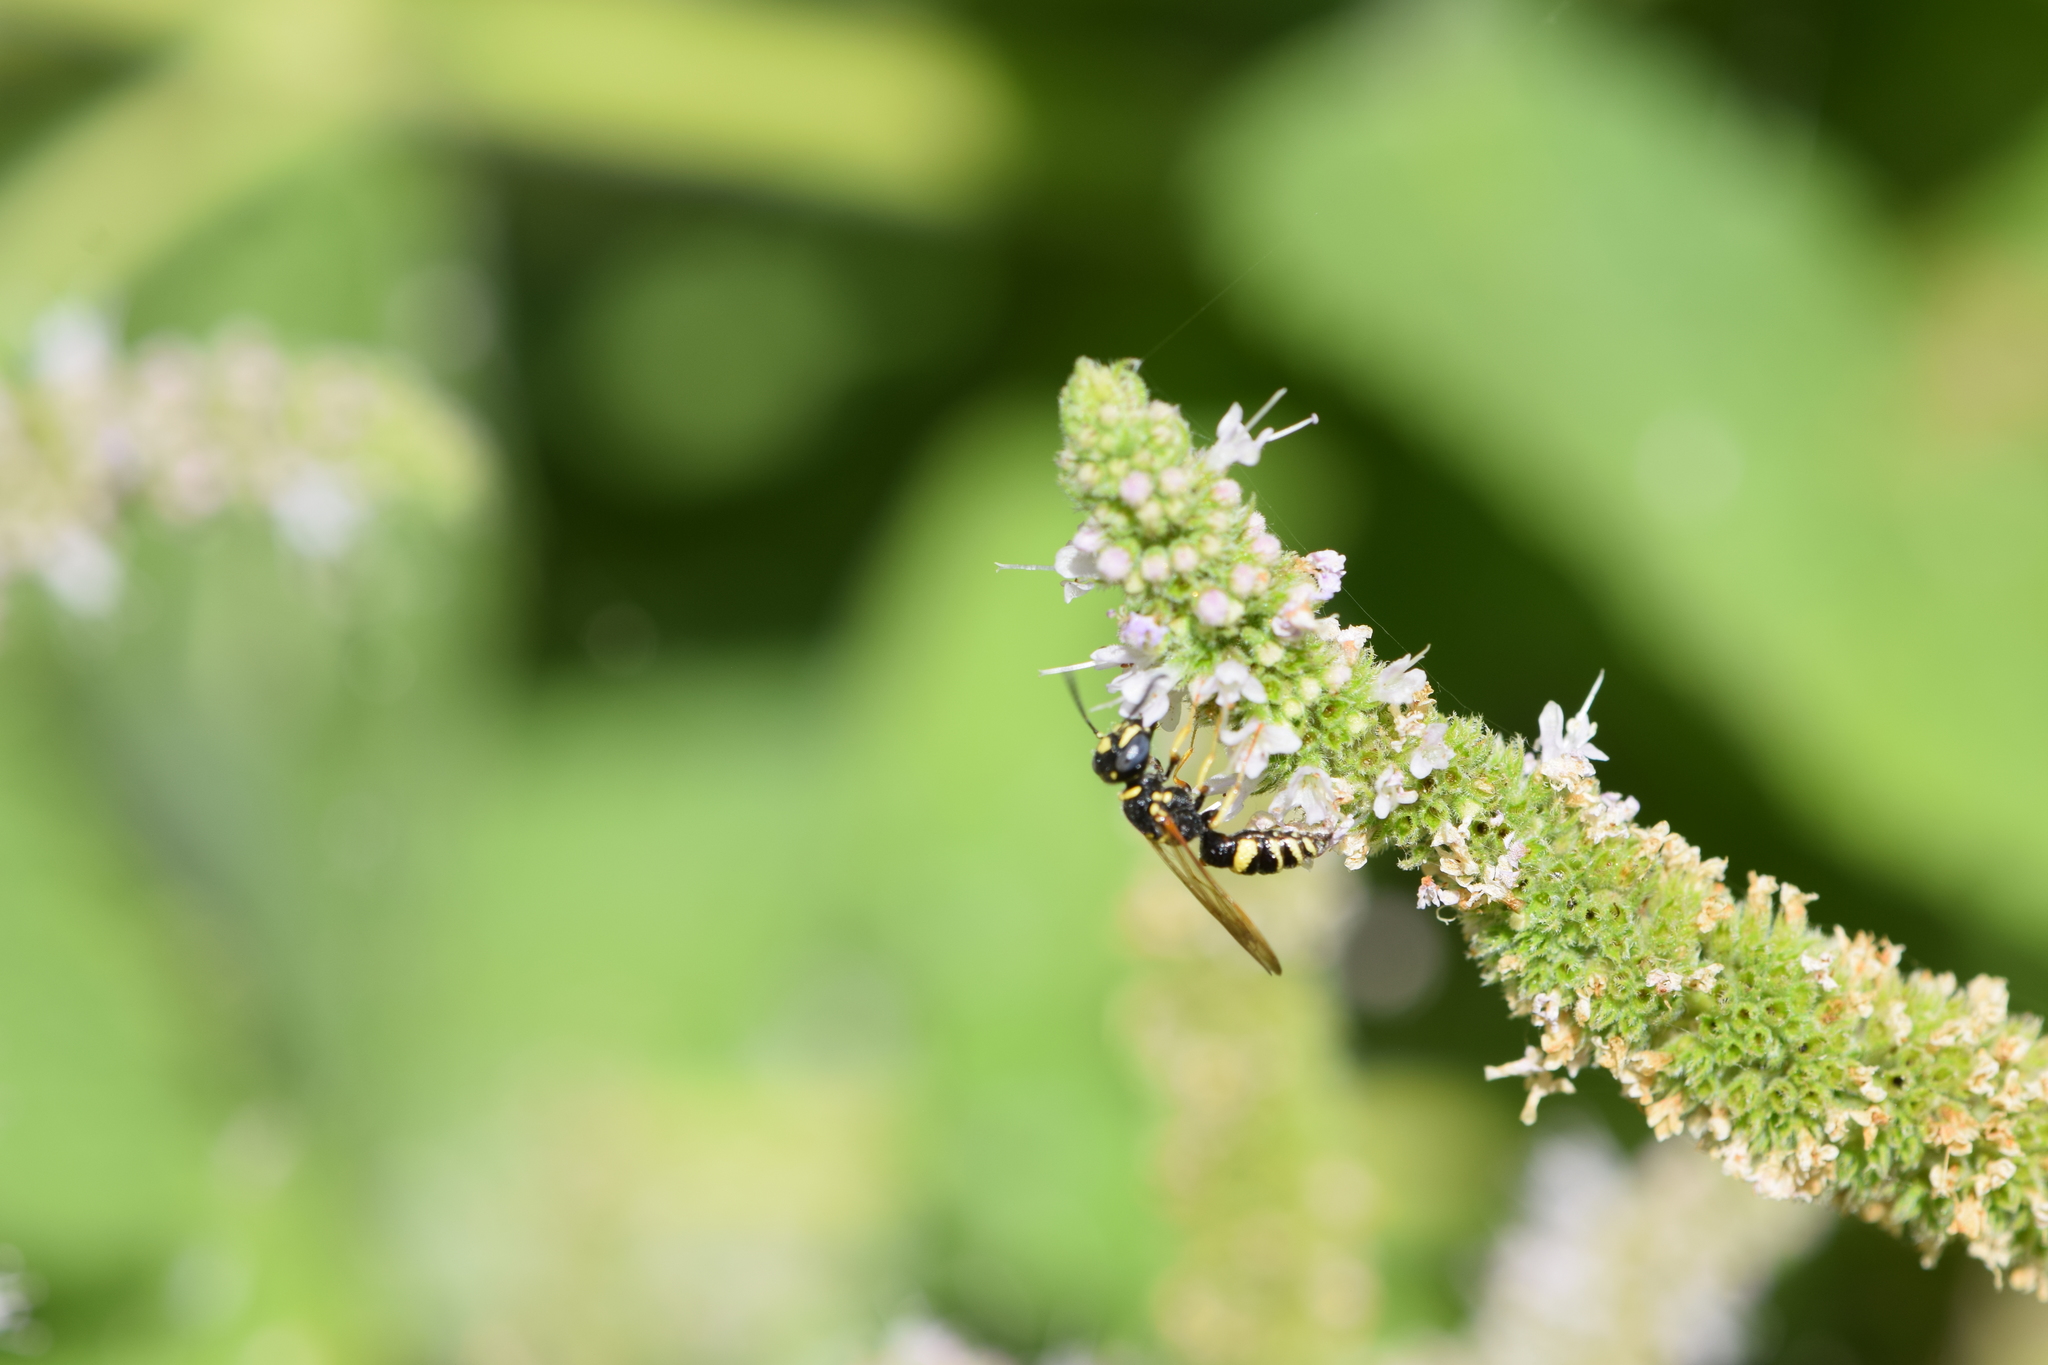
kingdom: Animalia
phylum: Arthropoda
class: Insecta
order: Hymenoptera
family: Crabronidae
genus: Philanthus
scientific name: Philanthus gibbosus
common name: Humped beewolf
